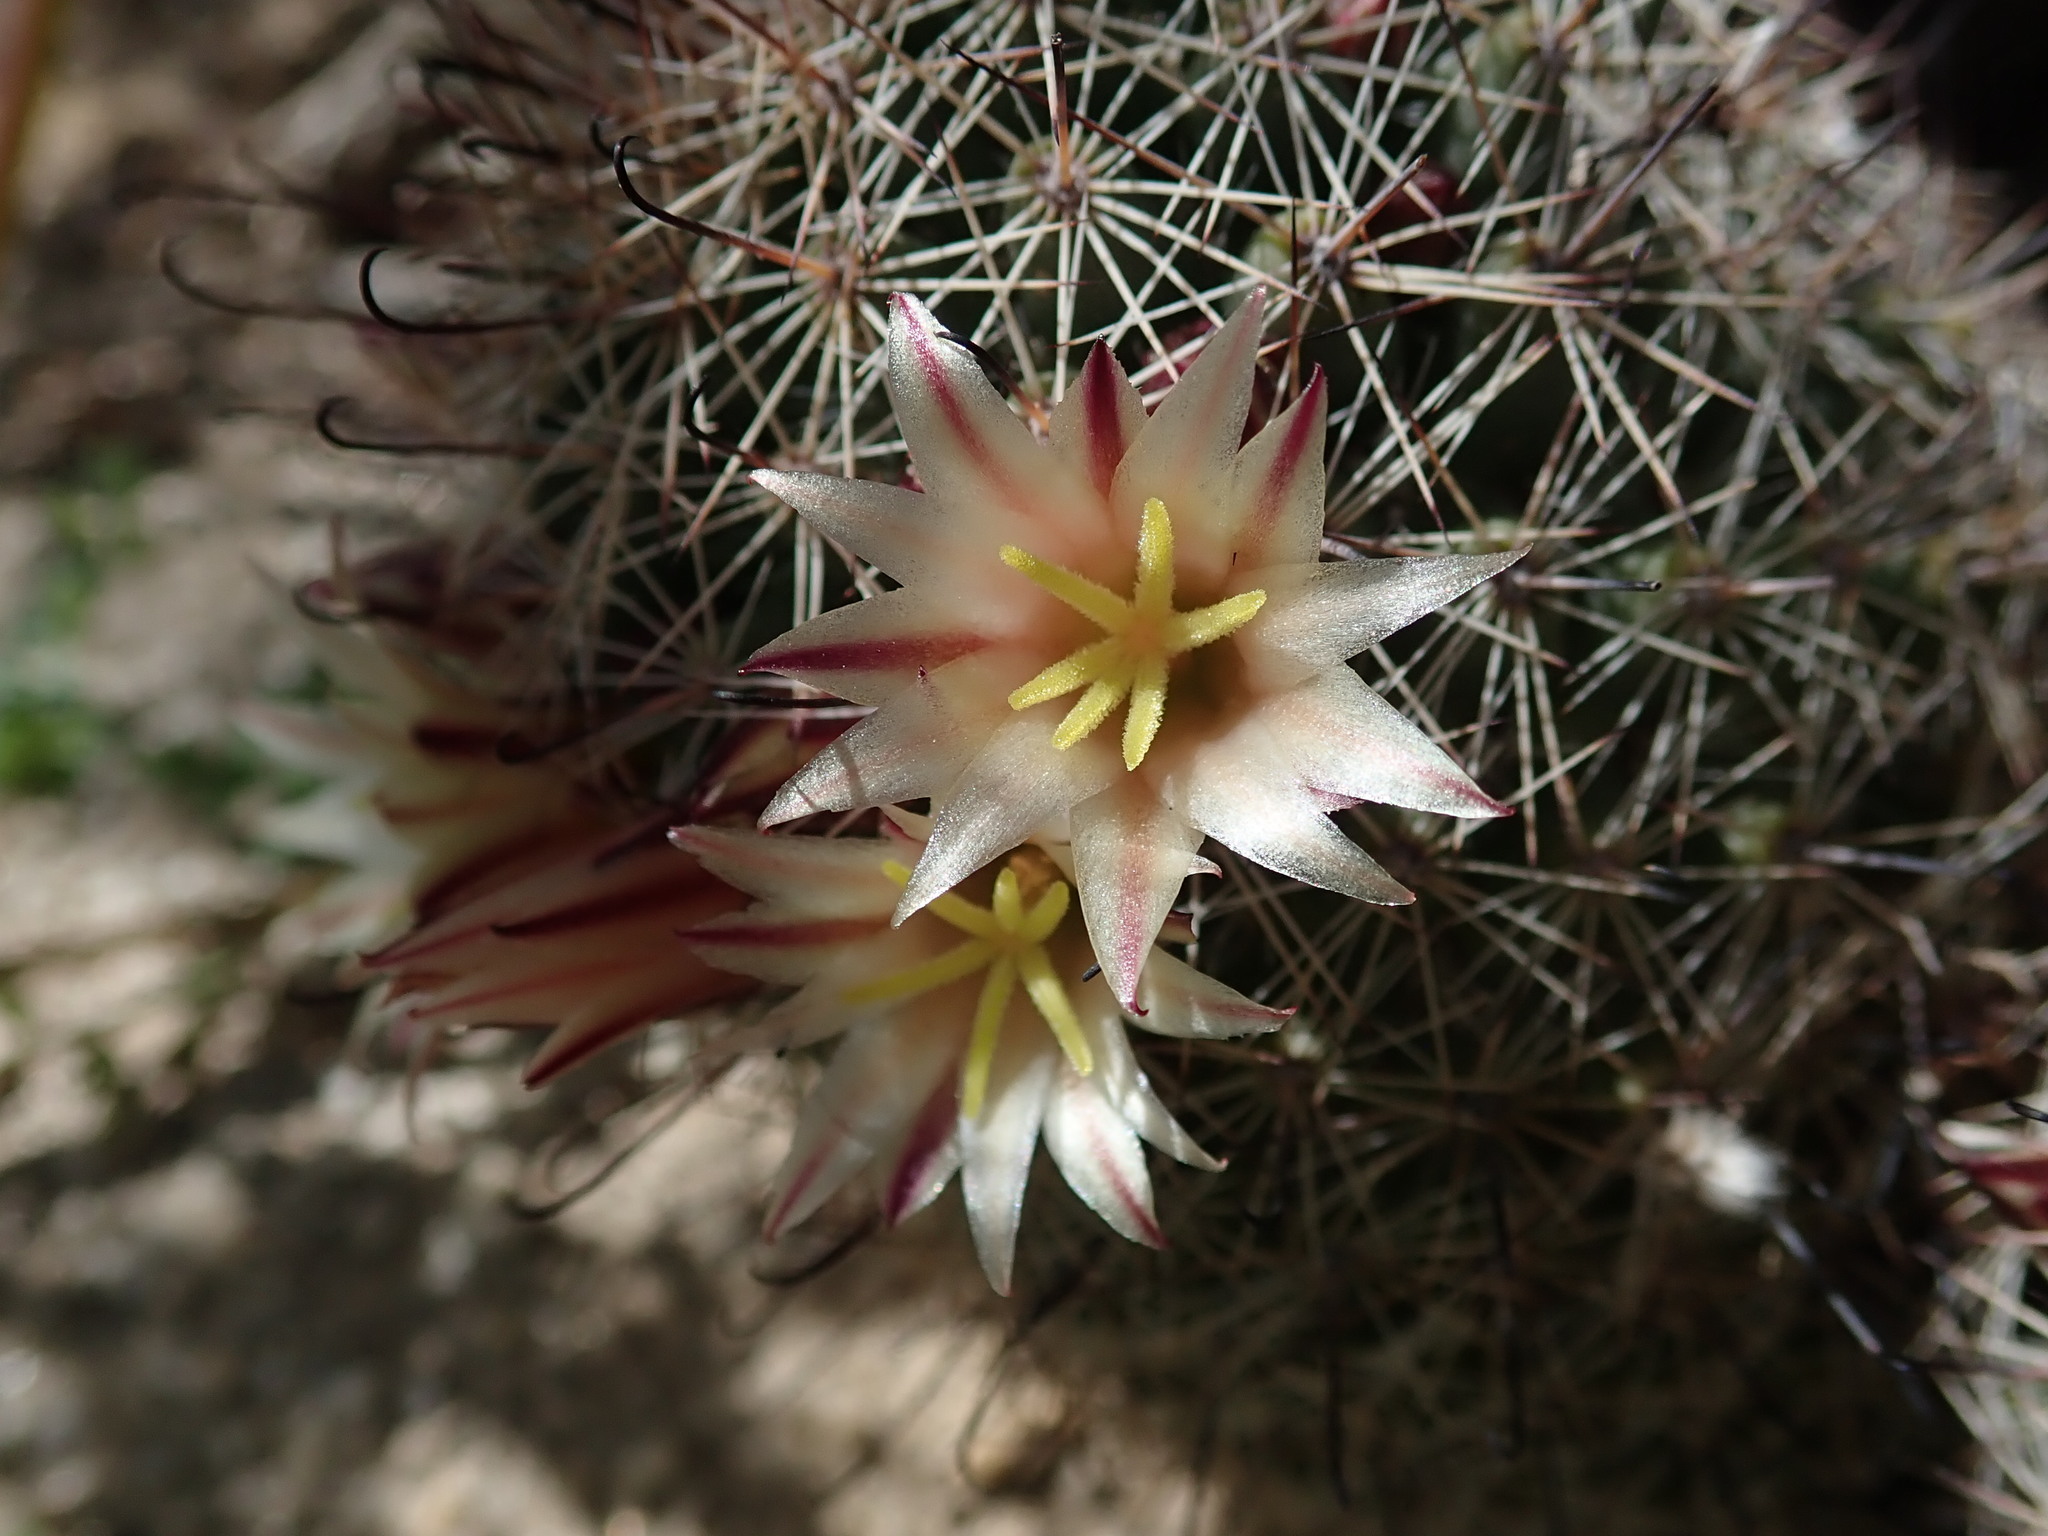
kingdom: Plantae
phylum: Tracheophyta
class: Magnoliopsida
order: Caryophyllales
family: Cactaceae
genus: Cochemiea
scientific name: Cochemiea dioica
